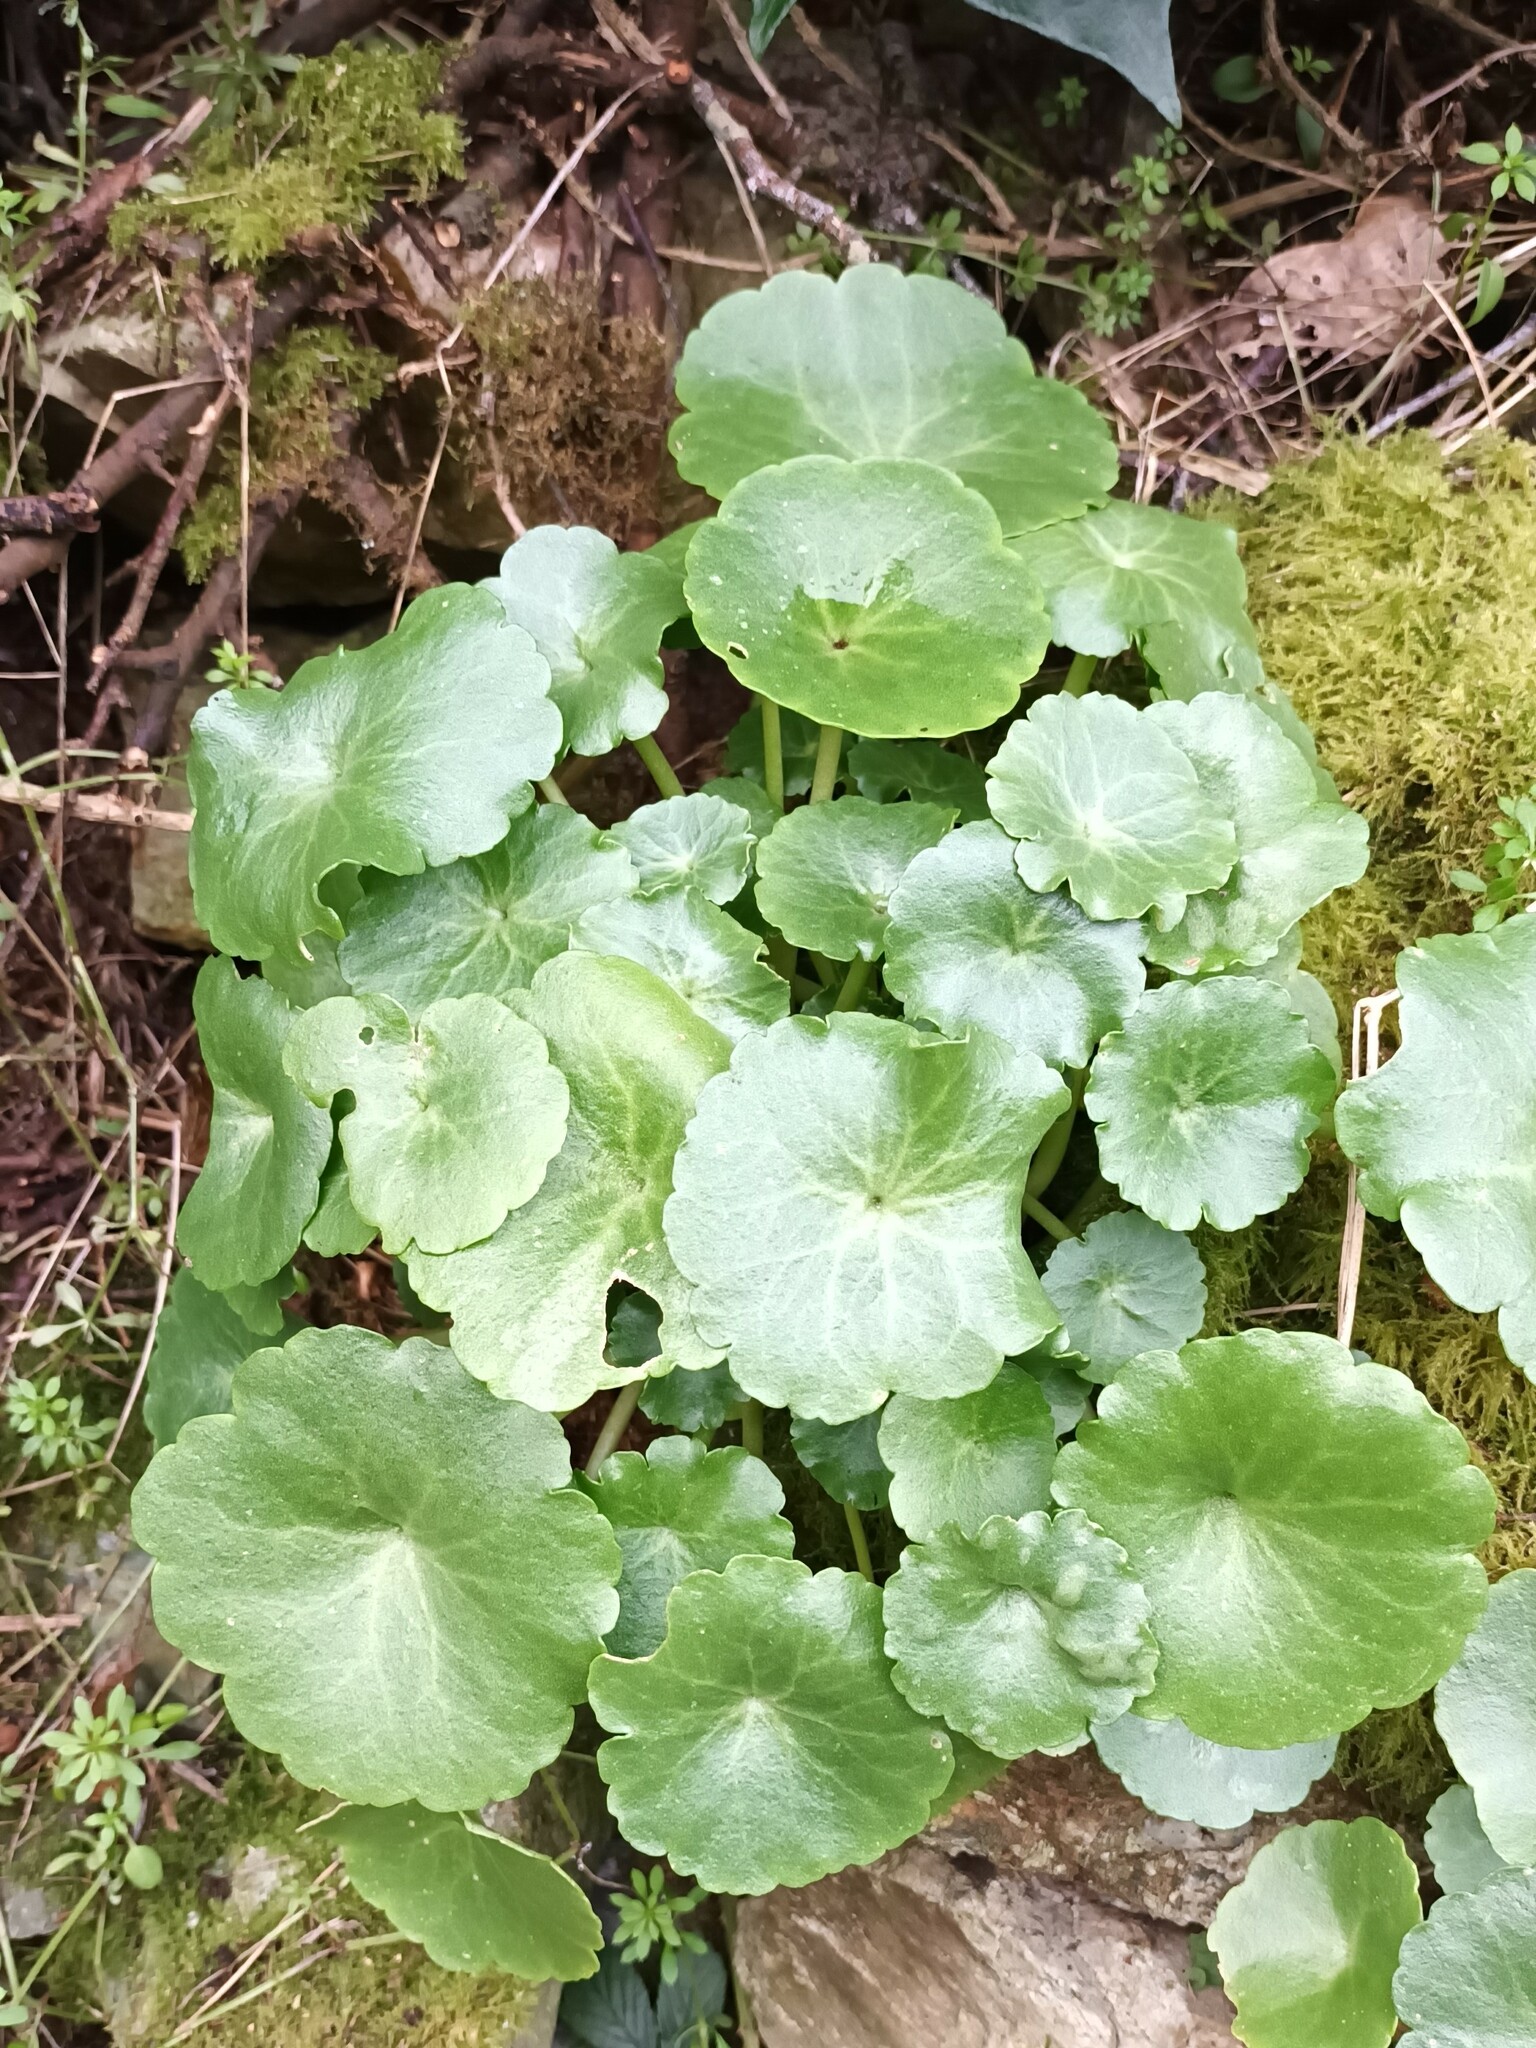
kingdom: Plantae
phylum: Tracheophyta
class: Magnoliopsida
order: Saxifragales
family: Crassulaceae
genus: Umbilicus
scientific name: Umbilicus rupestris
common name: Navelwort
